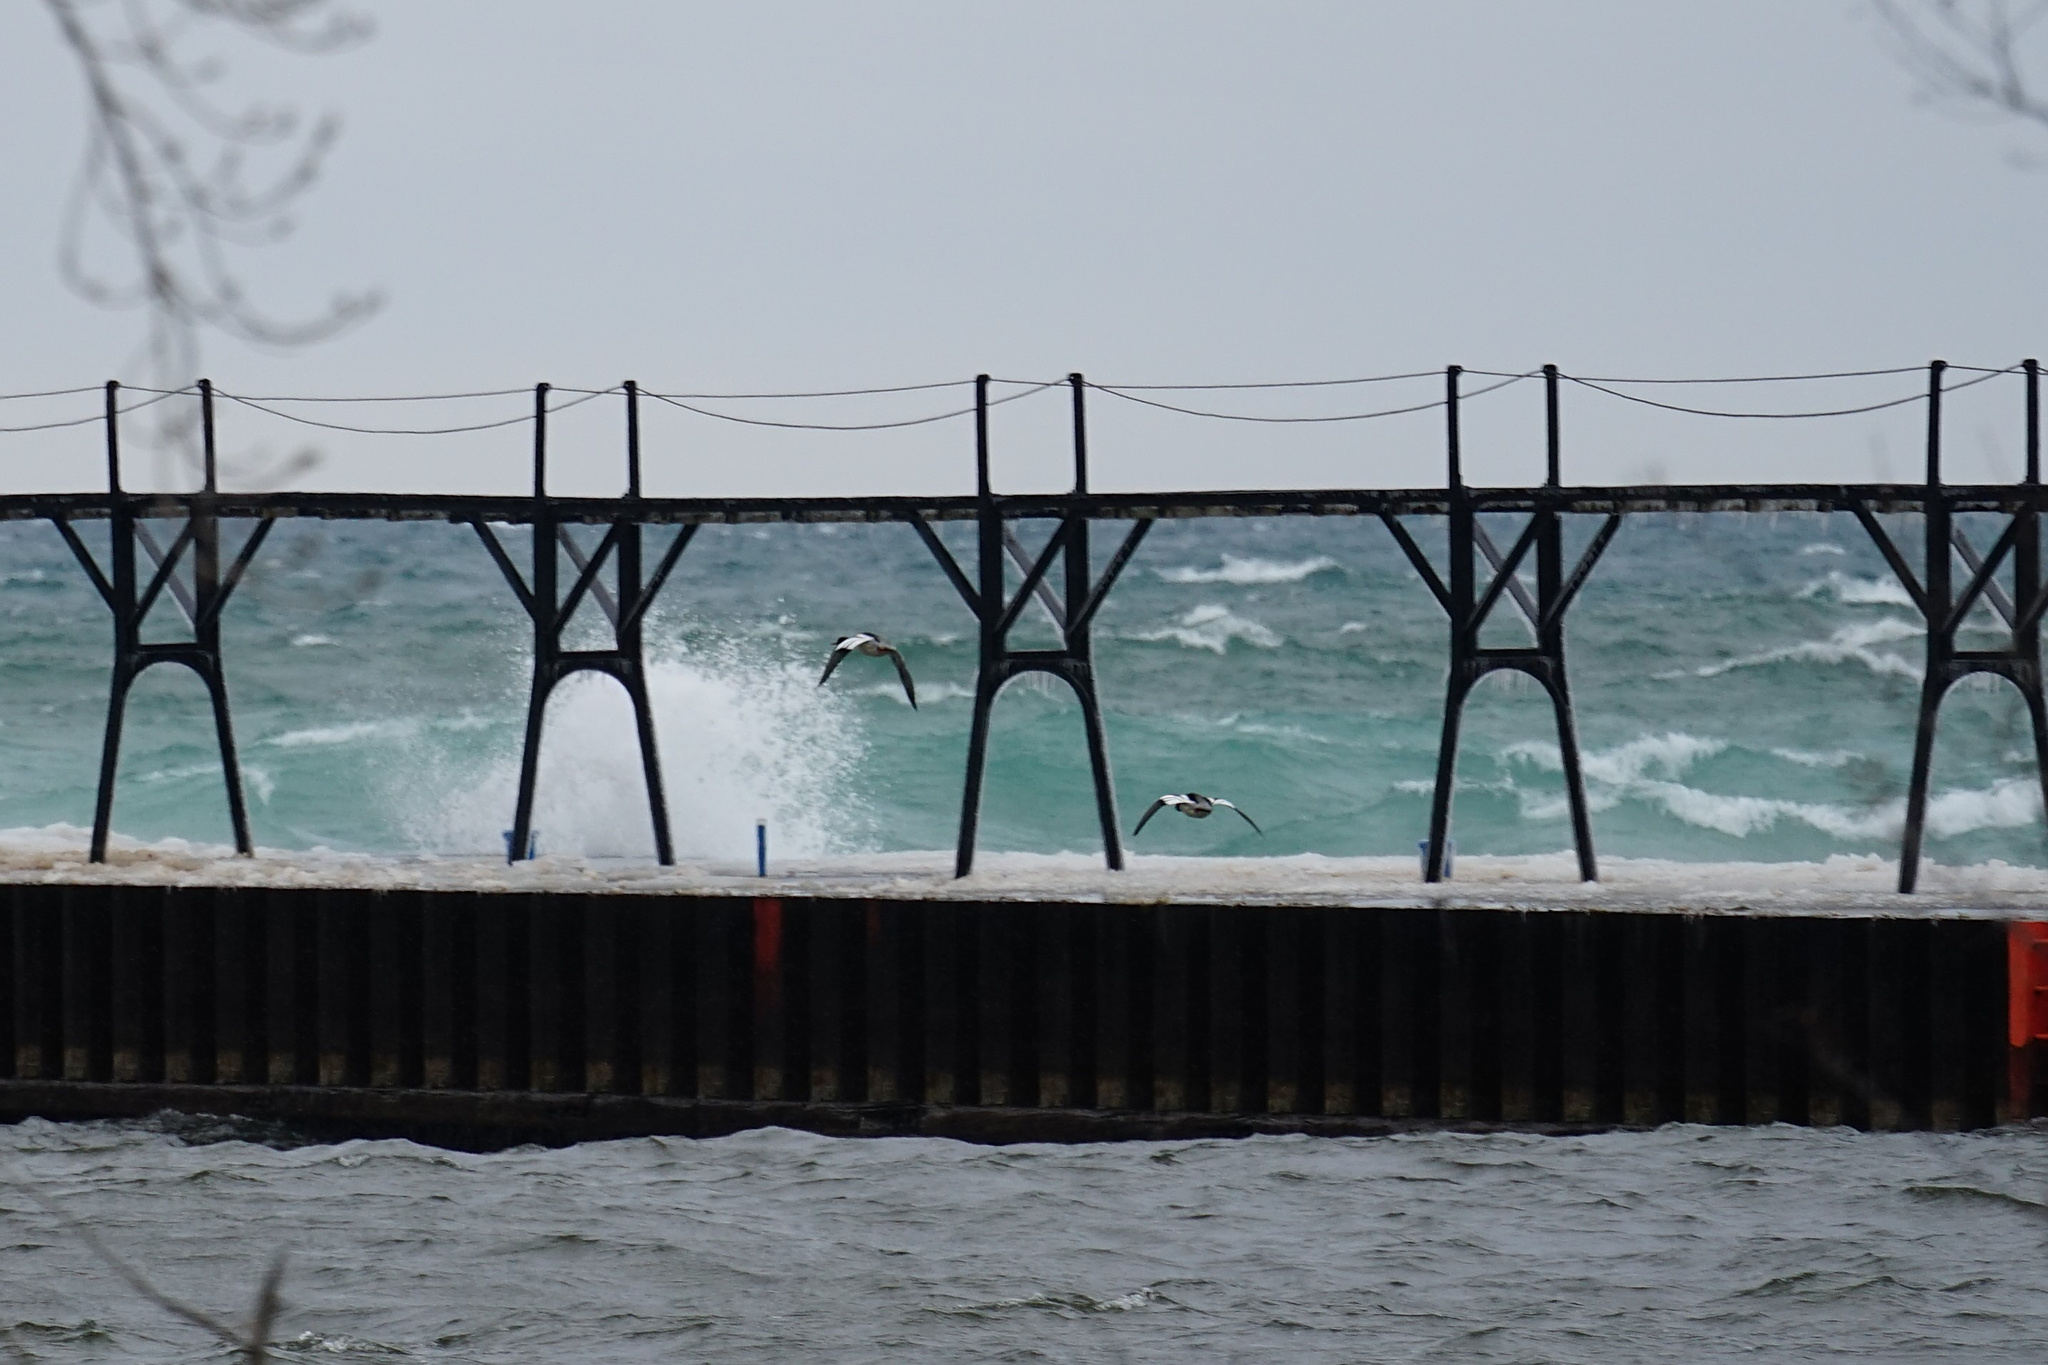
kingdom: Animalia
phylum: Chordata
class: Aves
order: Anseriformes
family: Anatidae
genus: Mergus
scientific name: Mergus serrator
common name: Red-breasted merganser
